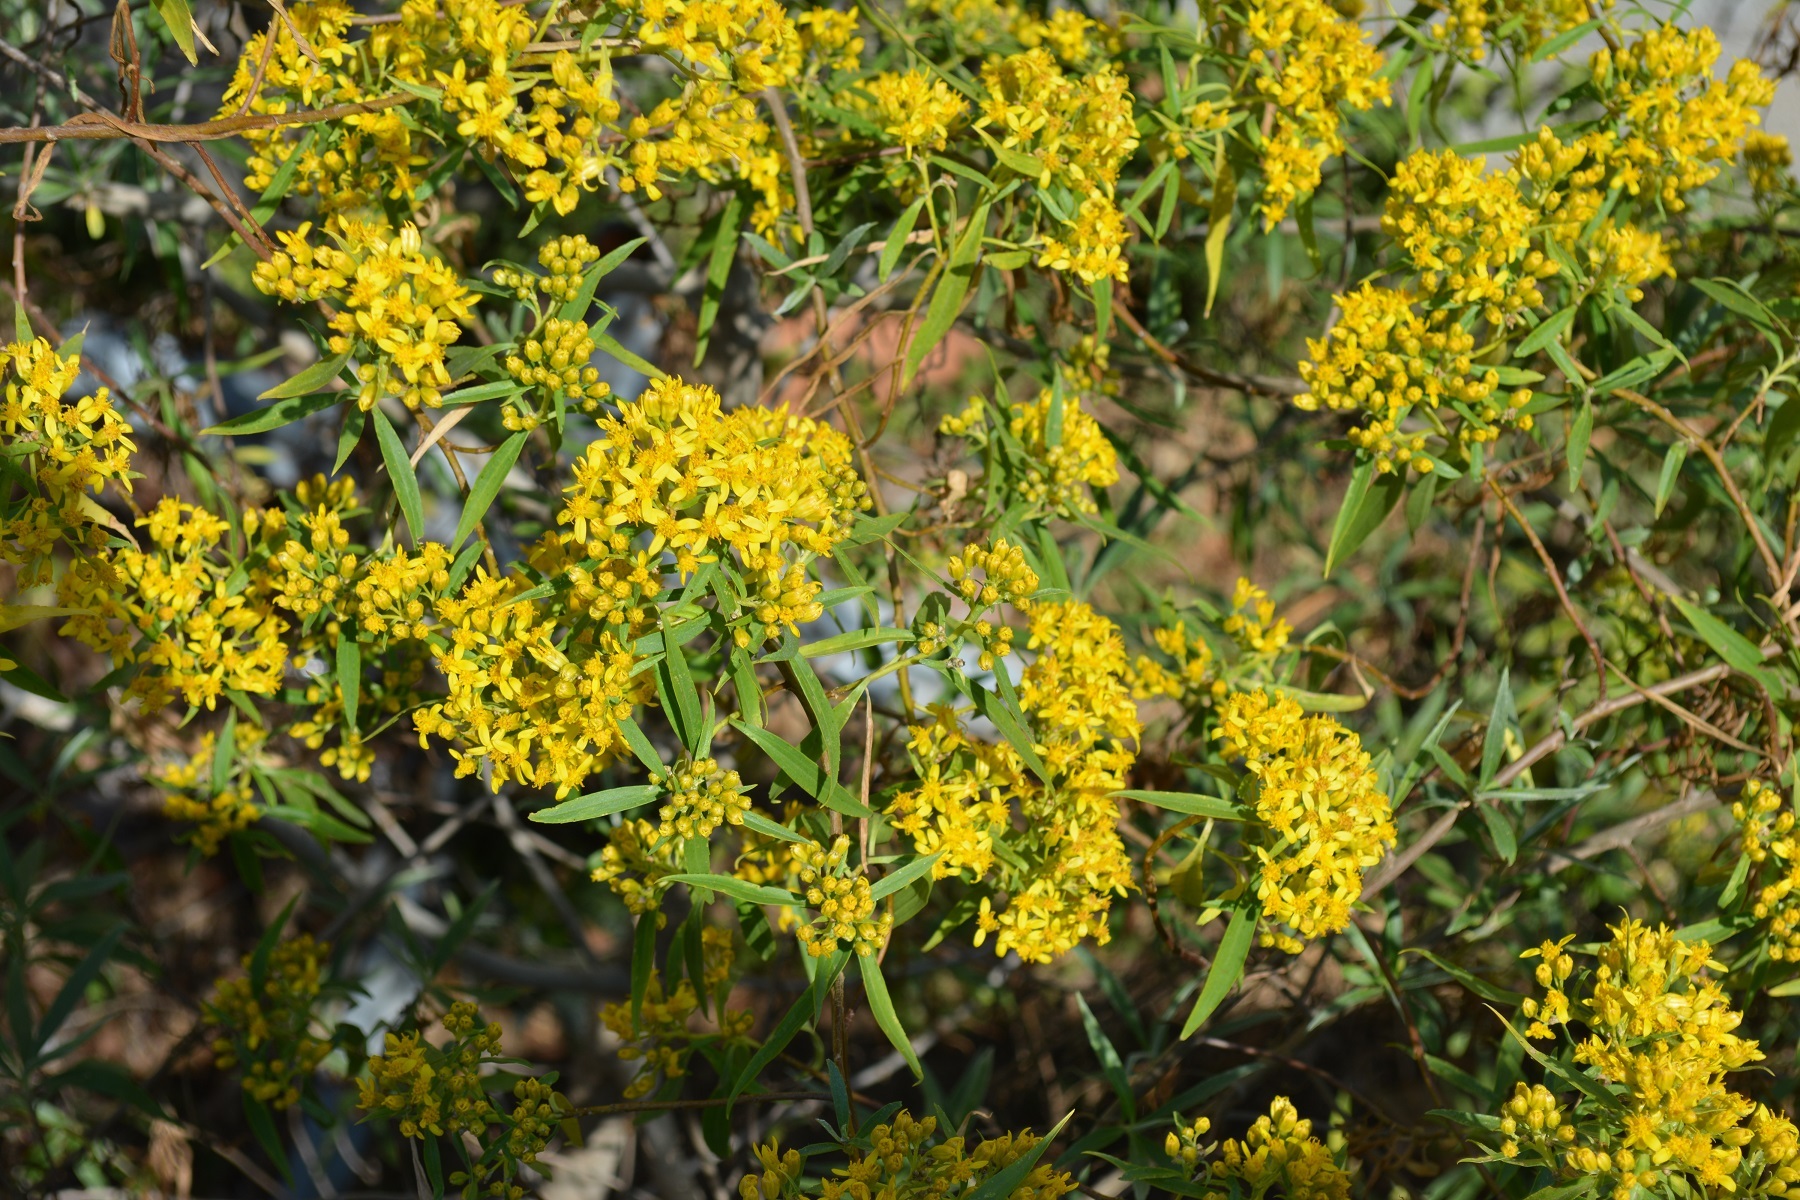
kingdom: Plantae
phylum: Tracheophyta
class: Magnoliopsida
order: Asterales
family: Asteraceae
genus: Barkleyanthus
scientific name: Barkleyanthus salicifolius
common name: Willow ragwort
